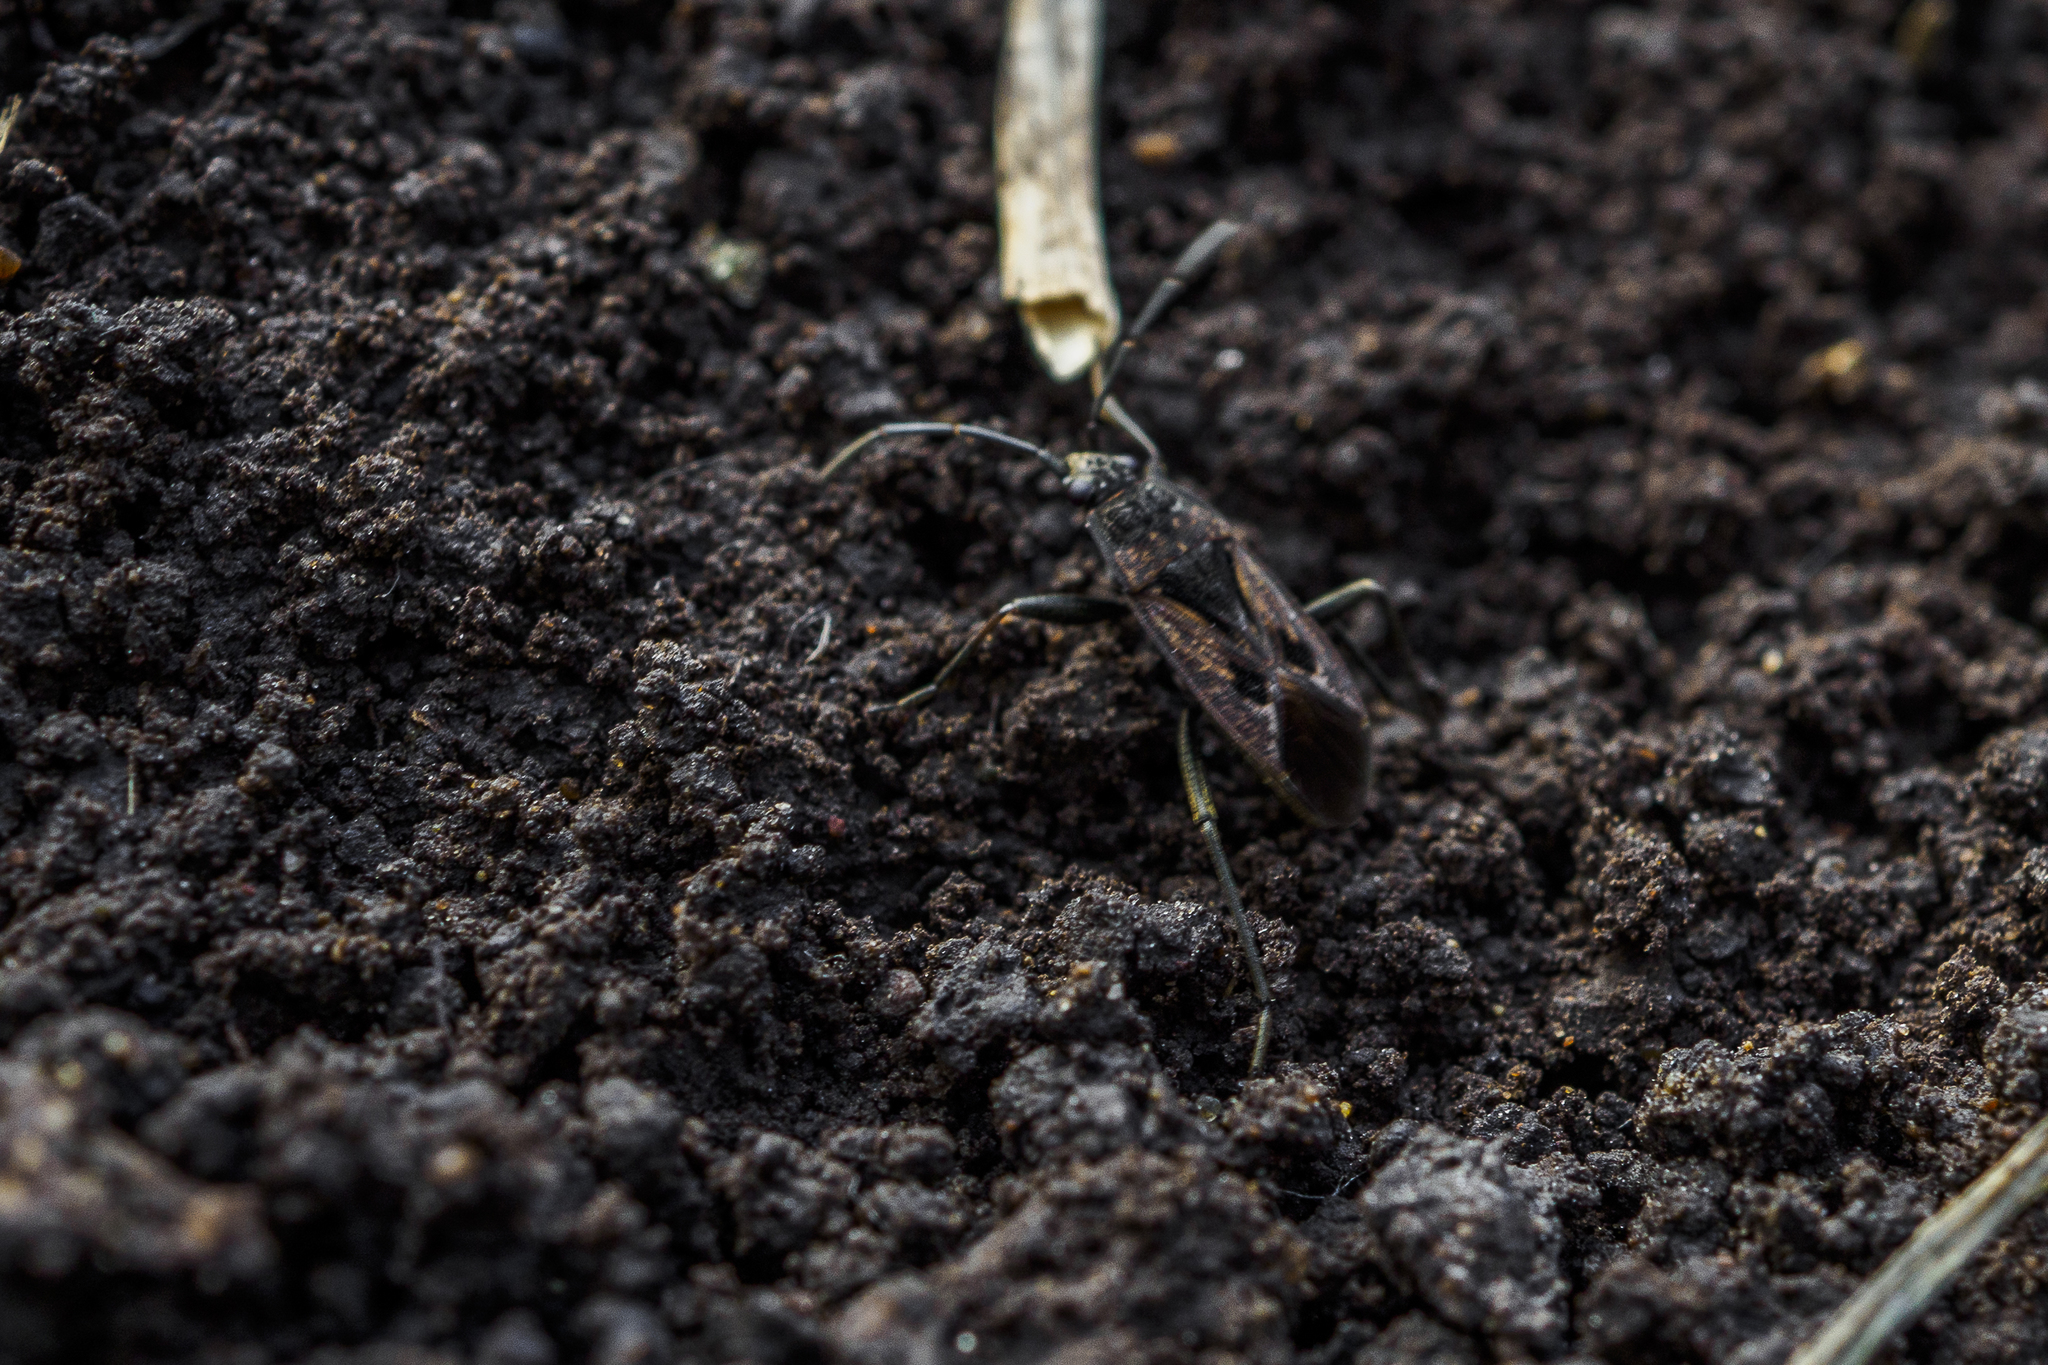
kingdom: Animalia
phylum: Arthropoda
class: Insecta
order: Hemiptera
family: Rhyparochromidae
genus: Rhyparochromus
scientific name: Rhyparochromus pini
